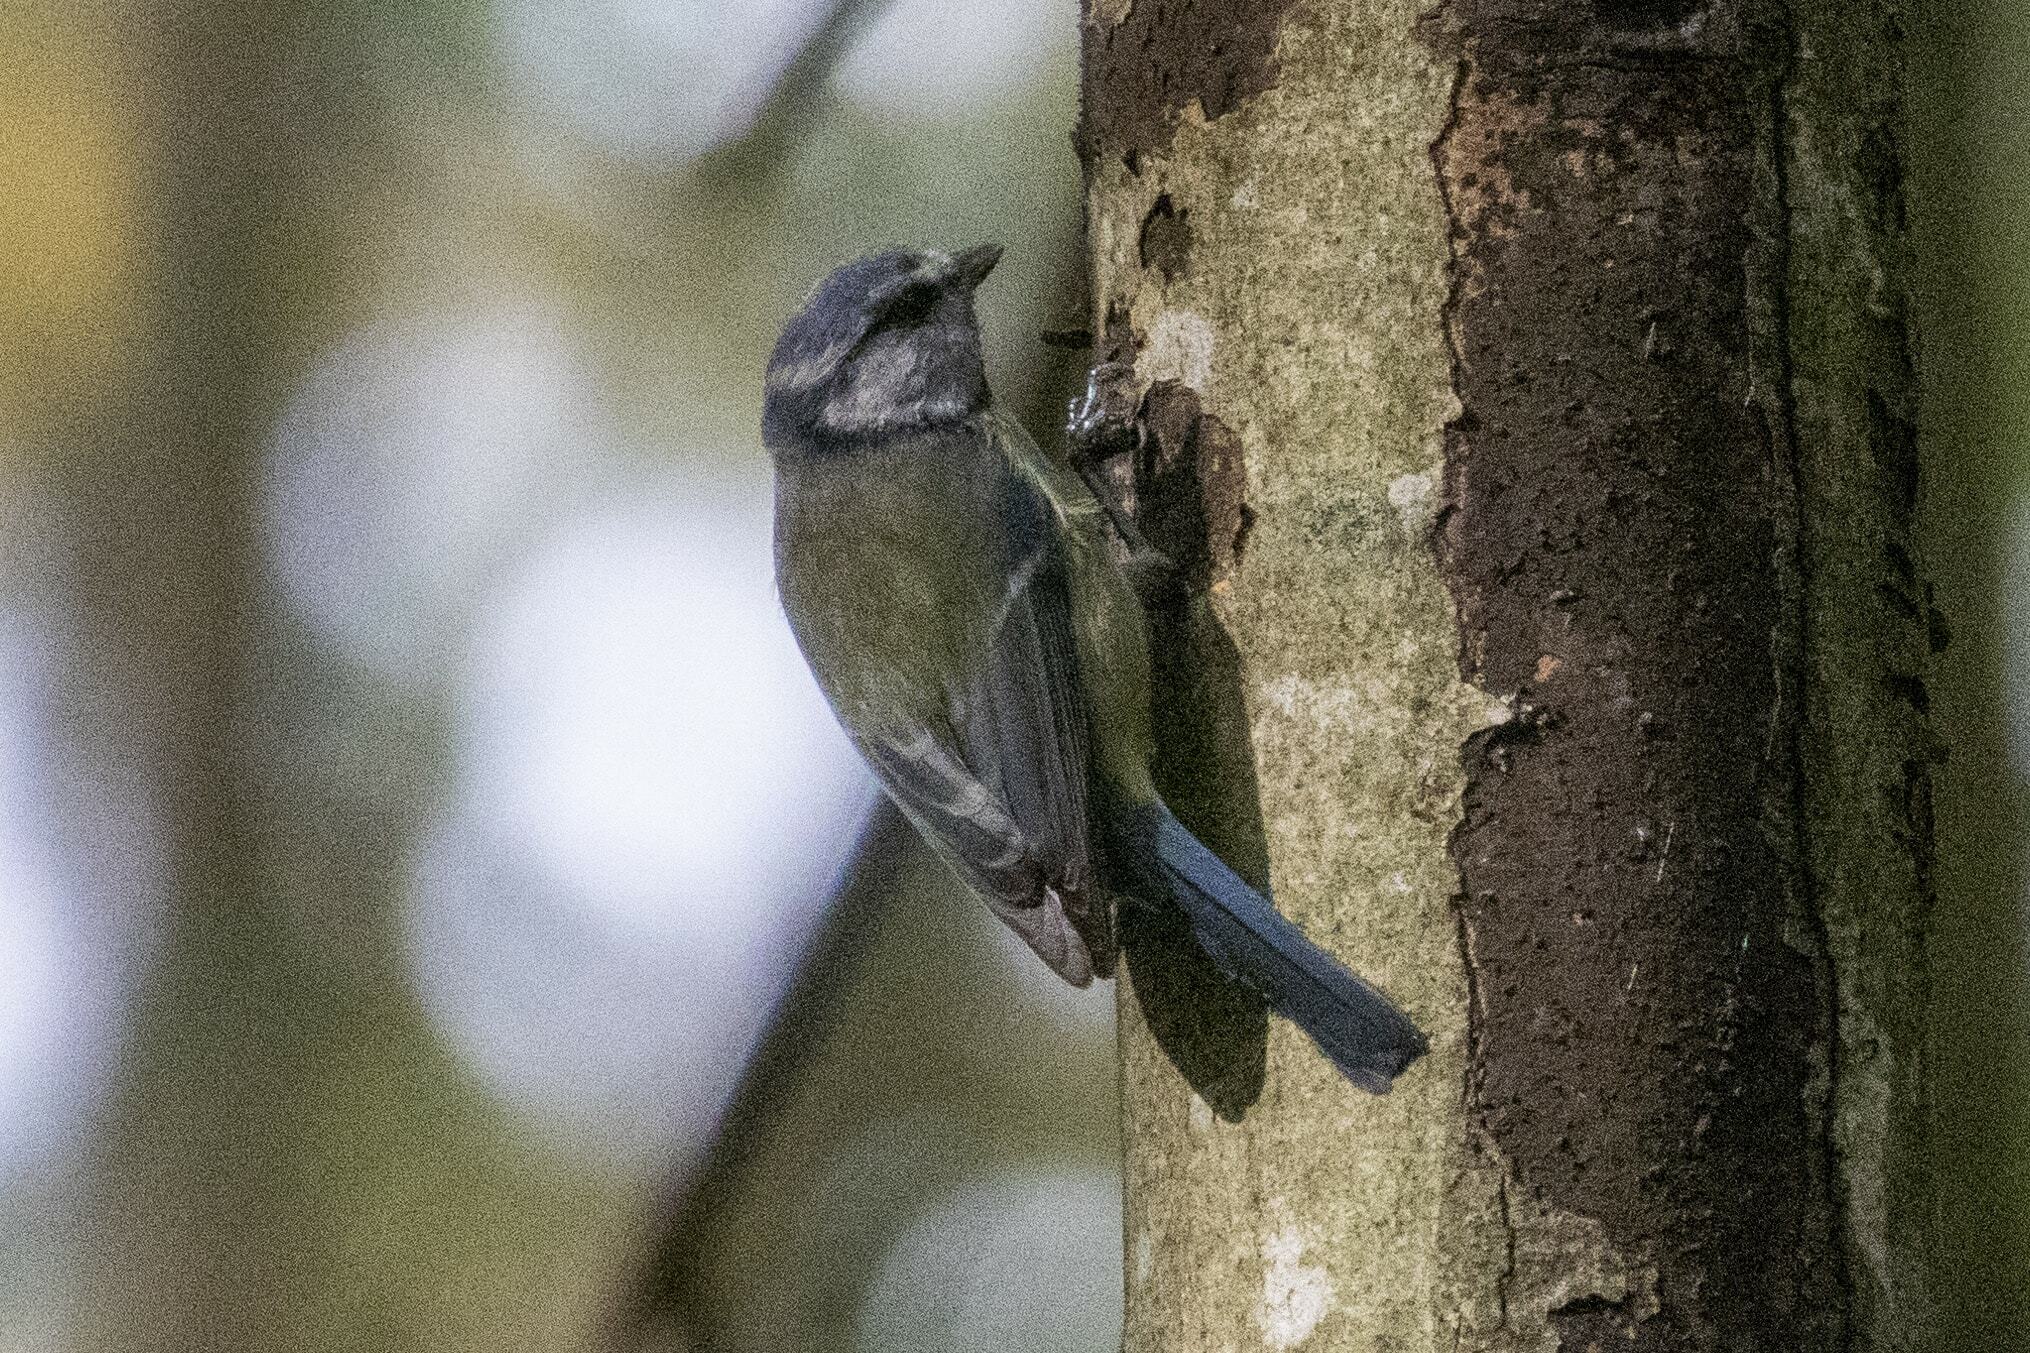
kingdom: Animalia
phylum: Chordata
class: Aves
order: Passeriformes
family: Paridae
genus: Cyanistes
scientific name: Cyanistes caeruleus
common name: Eurasian blue tit
